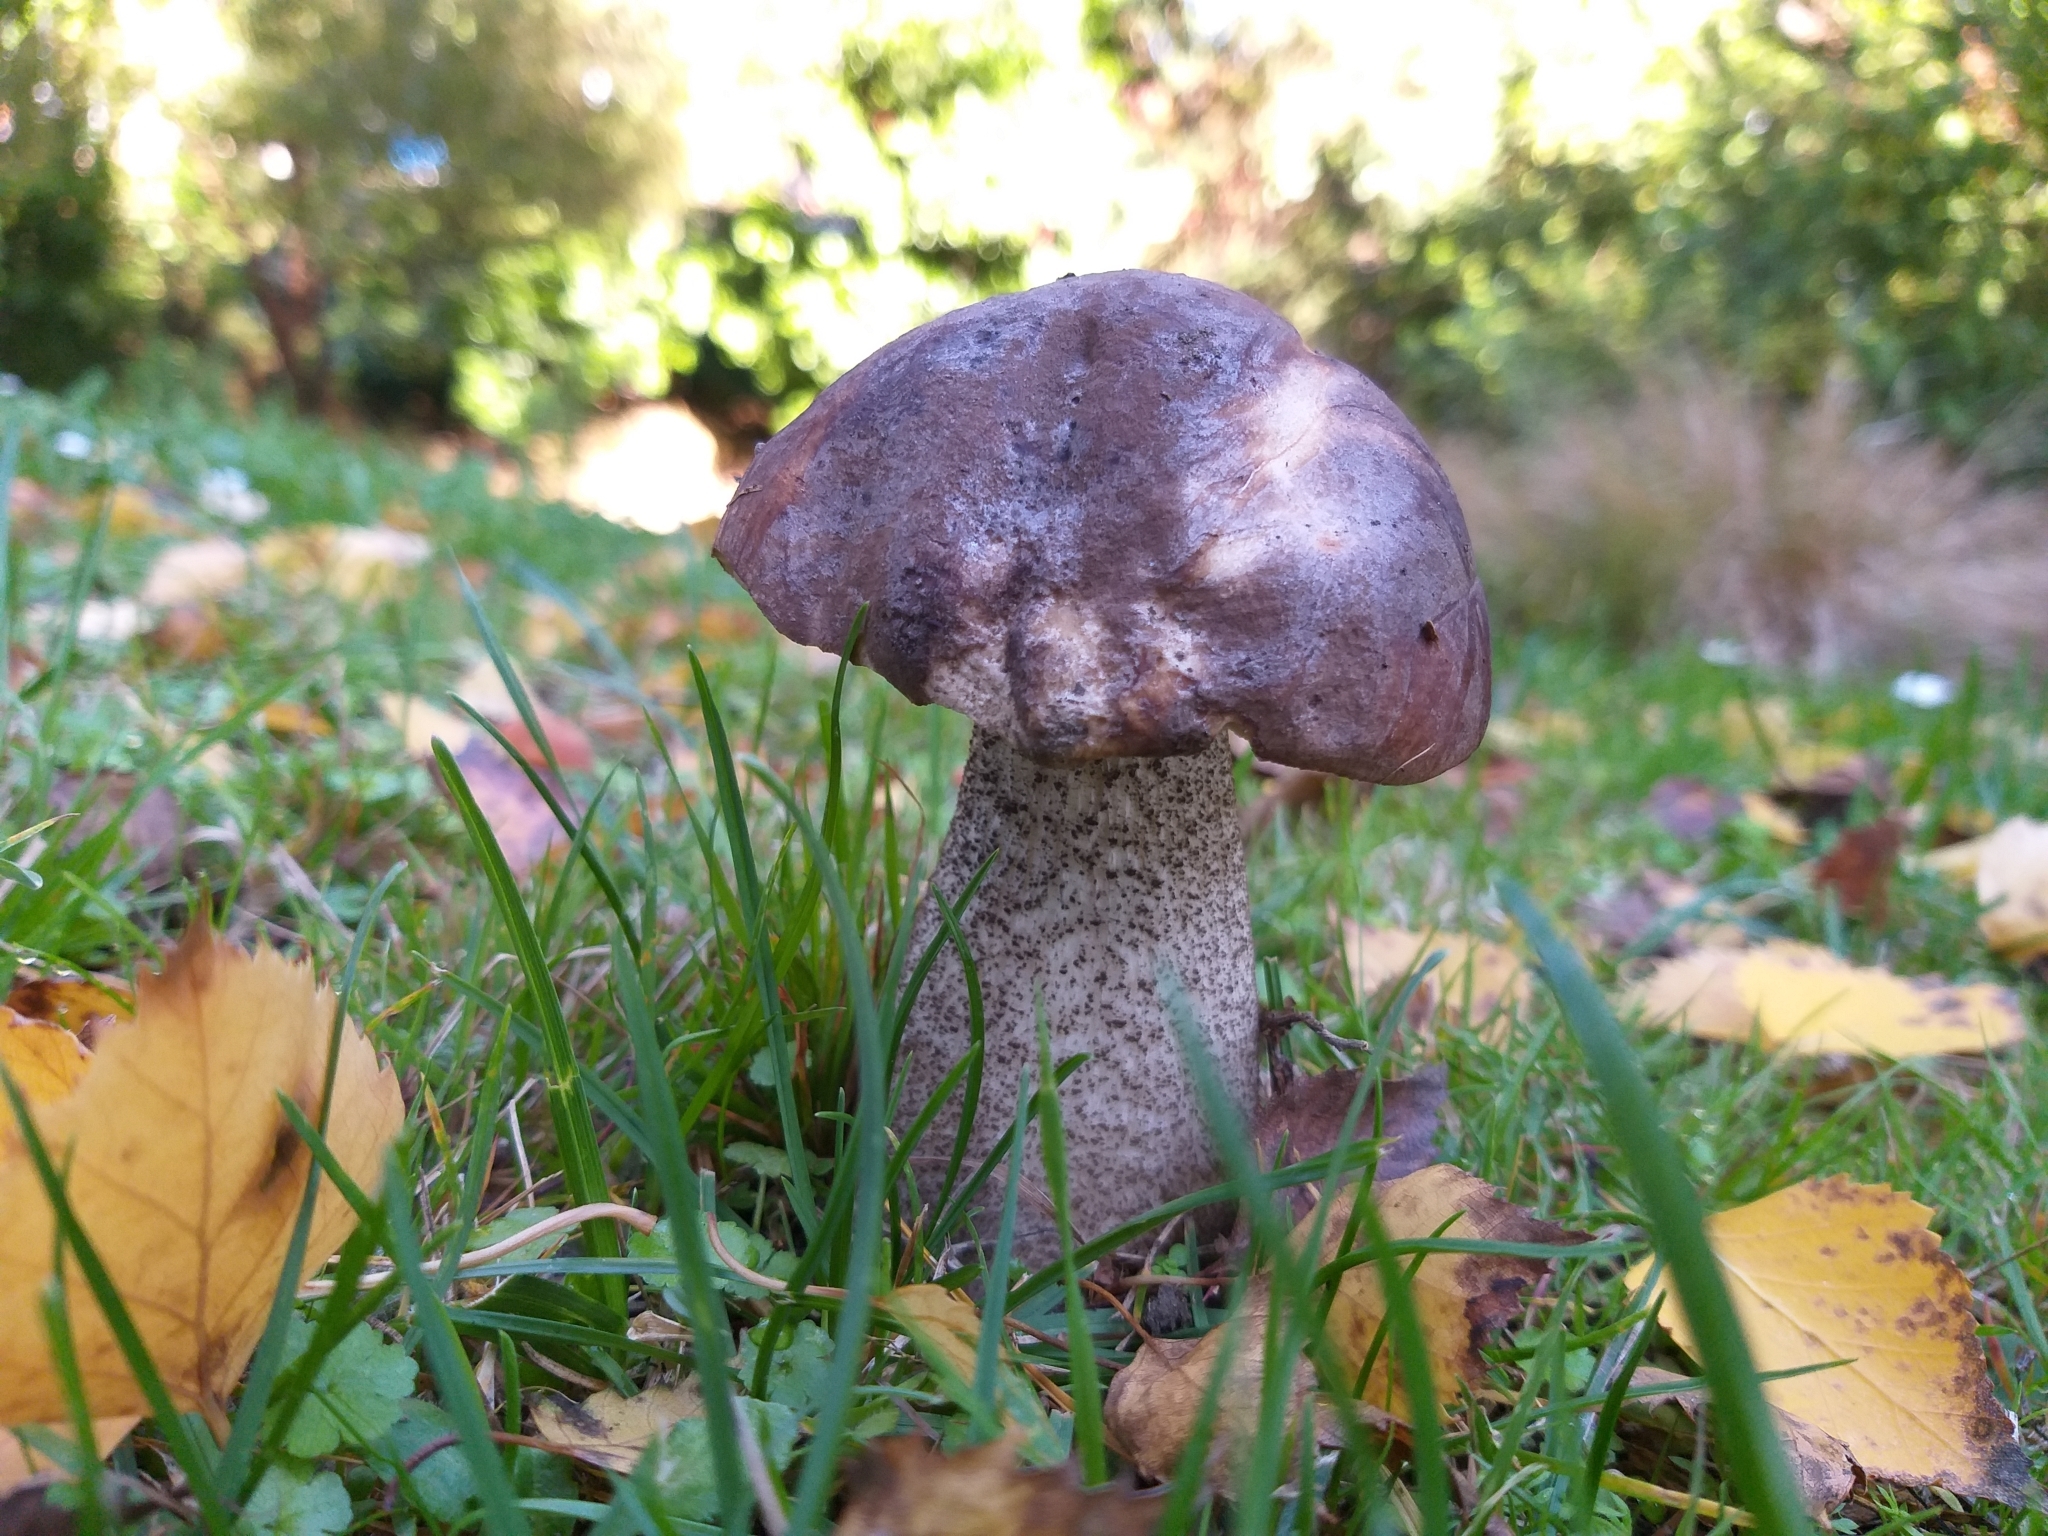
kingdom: Fungi
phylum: Basidiomycota
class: Agaricomycetes
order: Boletales
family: Boletaceae
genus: Leccinum
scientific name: Leccinum scabrum
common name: Blushing bolete
